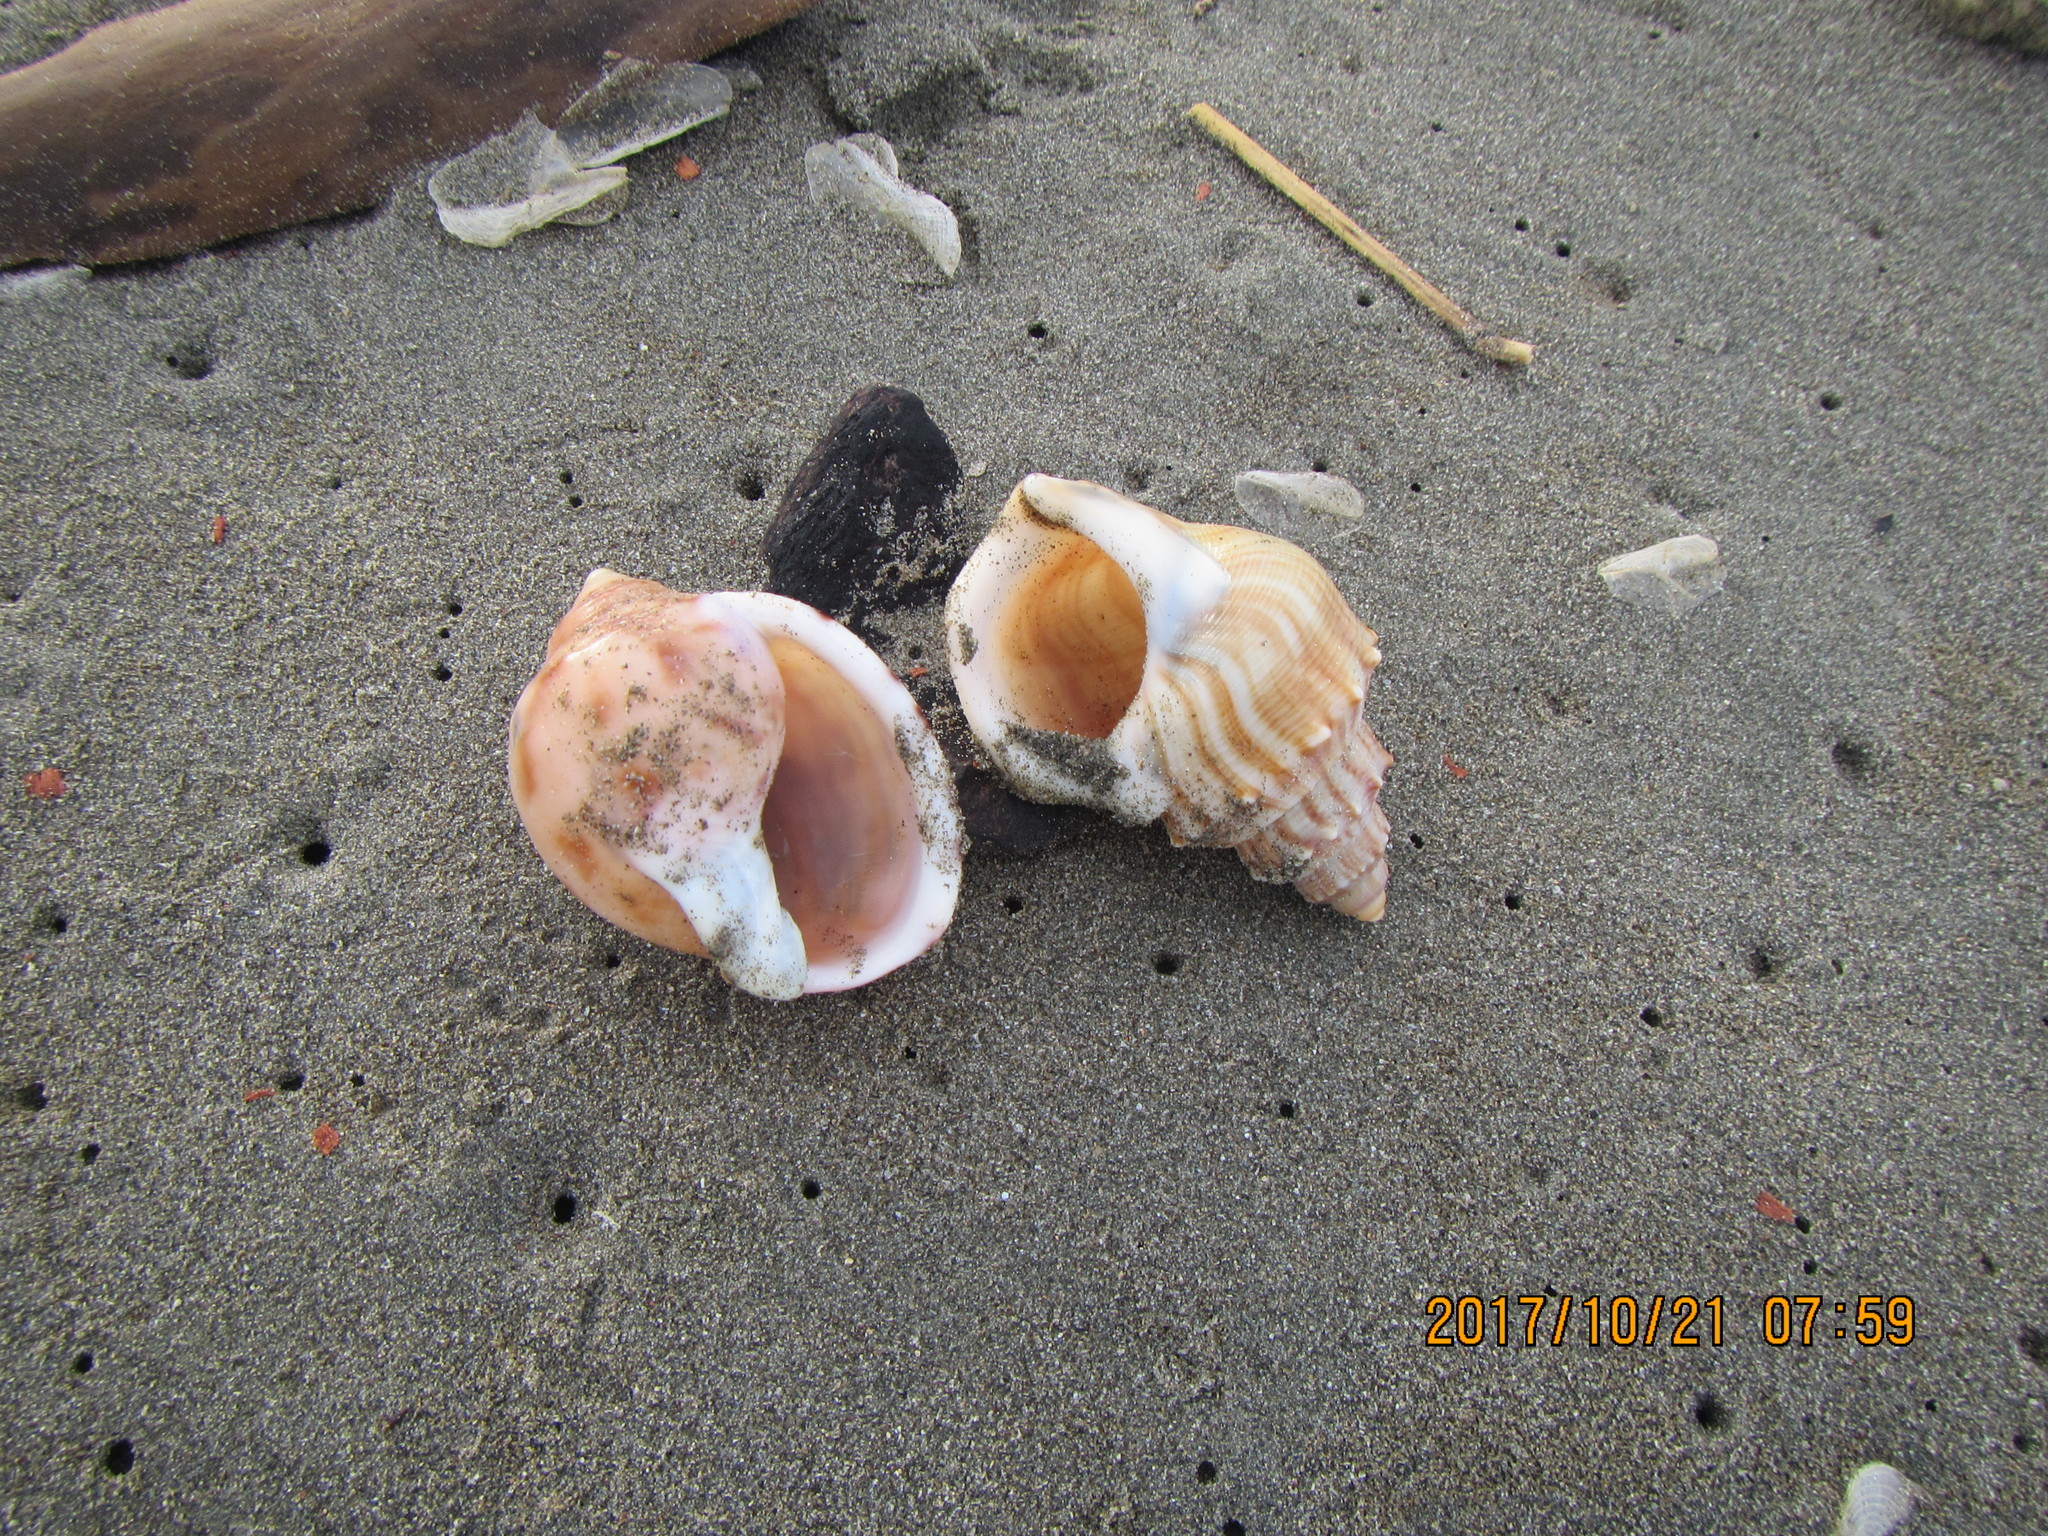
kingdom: Animalia
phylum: Mollusca
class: Gastropoda
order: Littorinimorpha
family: Struthiolariidae
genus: Struthiolaria
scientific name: Struthiolaria papulosa
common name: Large ostrich foot
